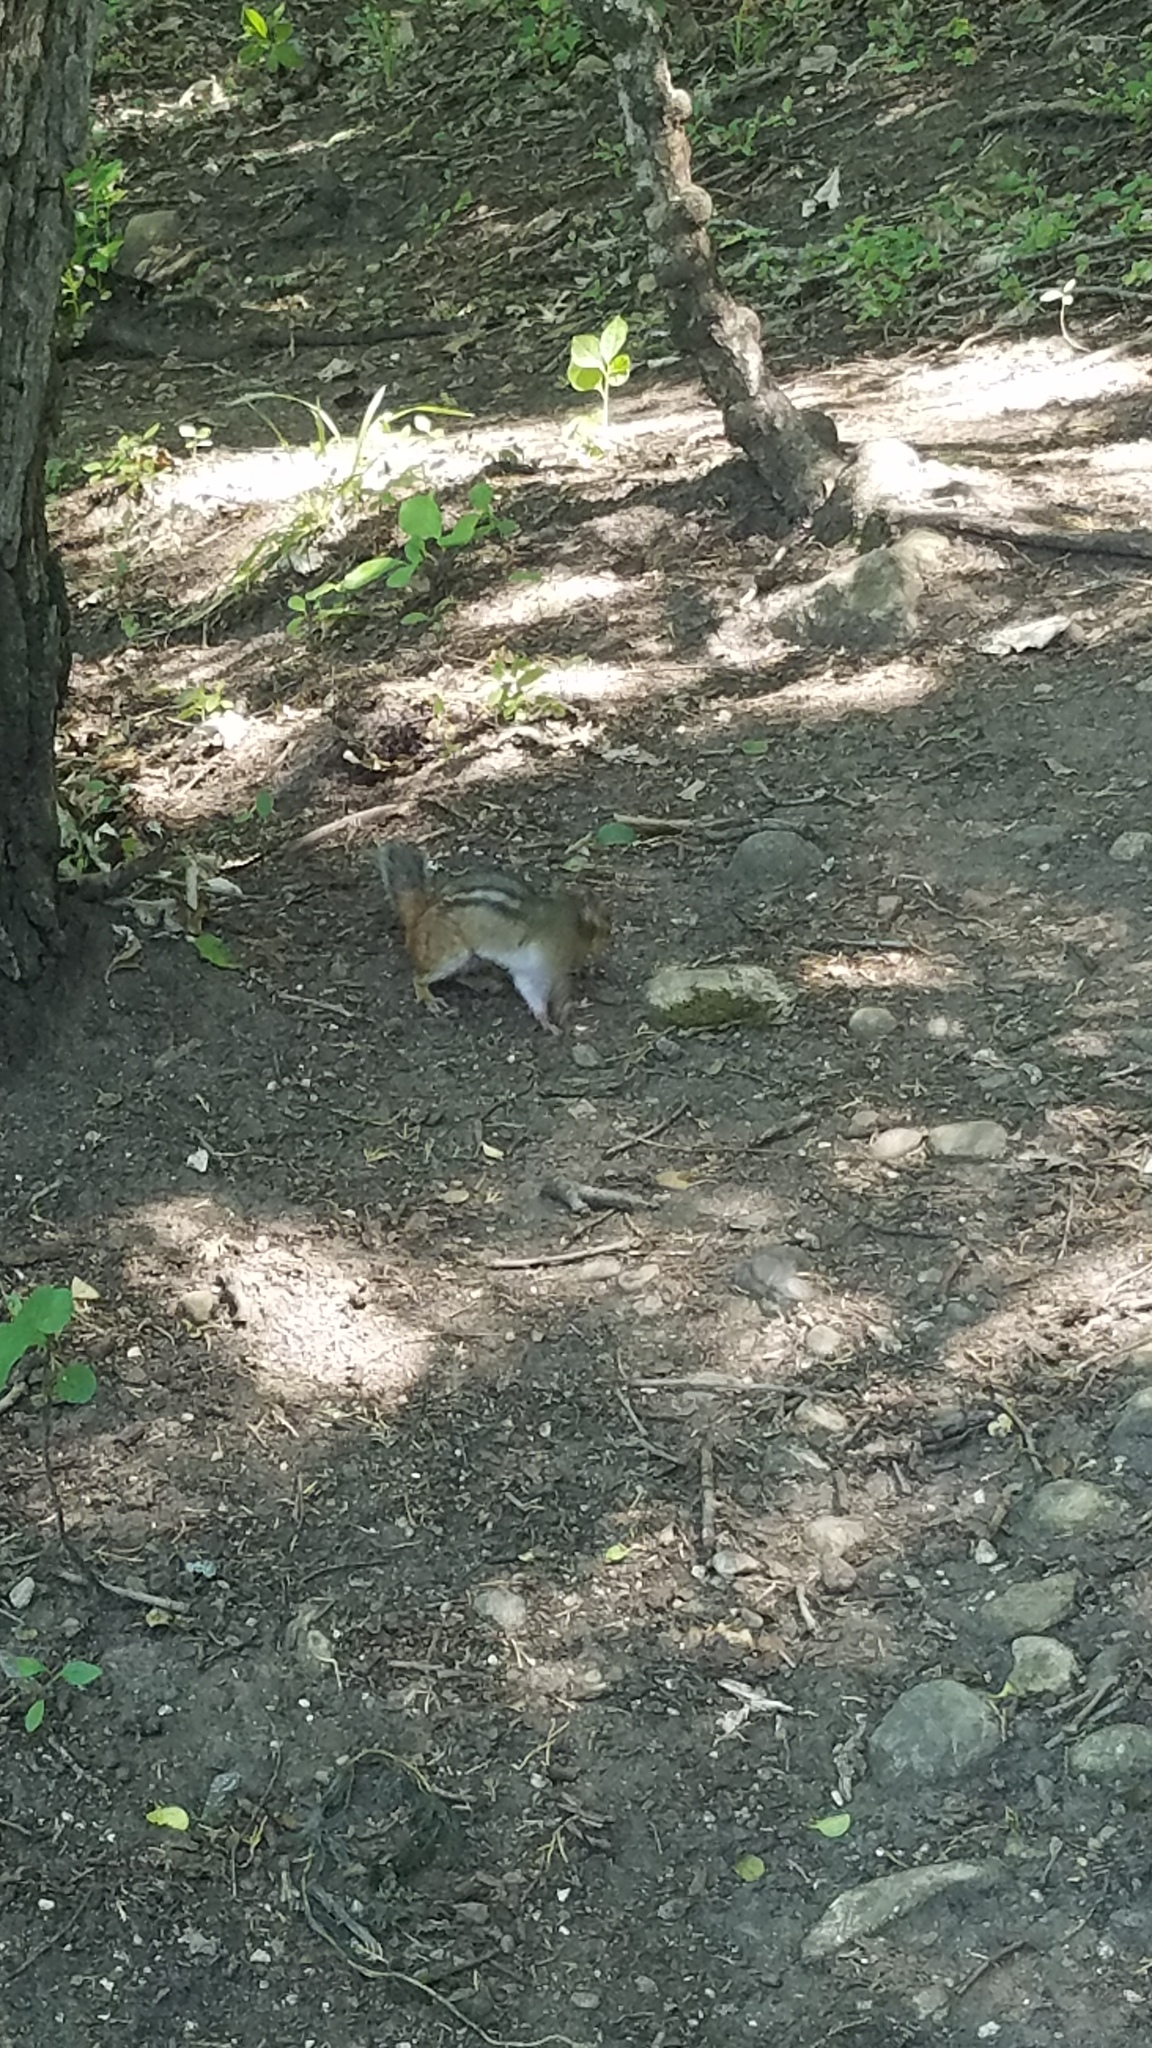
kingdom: Animalia
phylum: Chordata
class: Mammalia
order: Rodentia
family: Sciuridae
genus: Tamias
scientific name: Tamias striatus
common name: Eastern chipmunk
